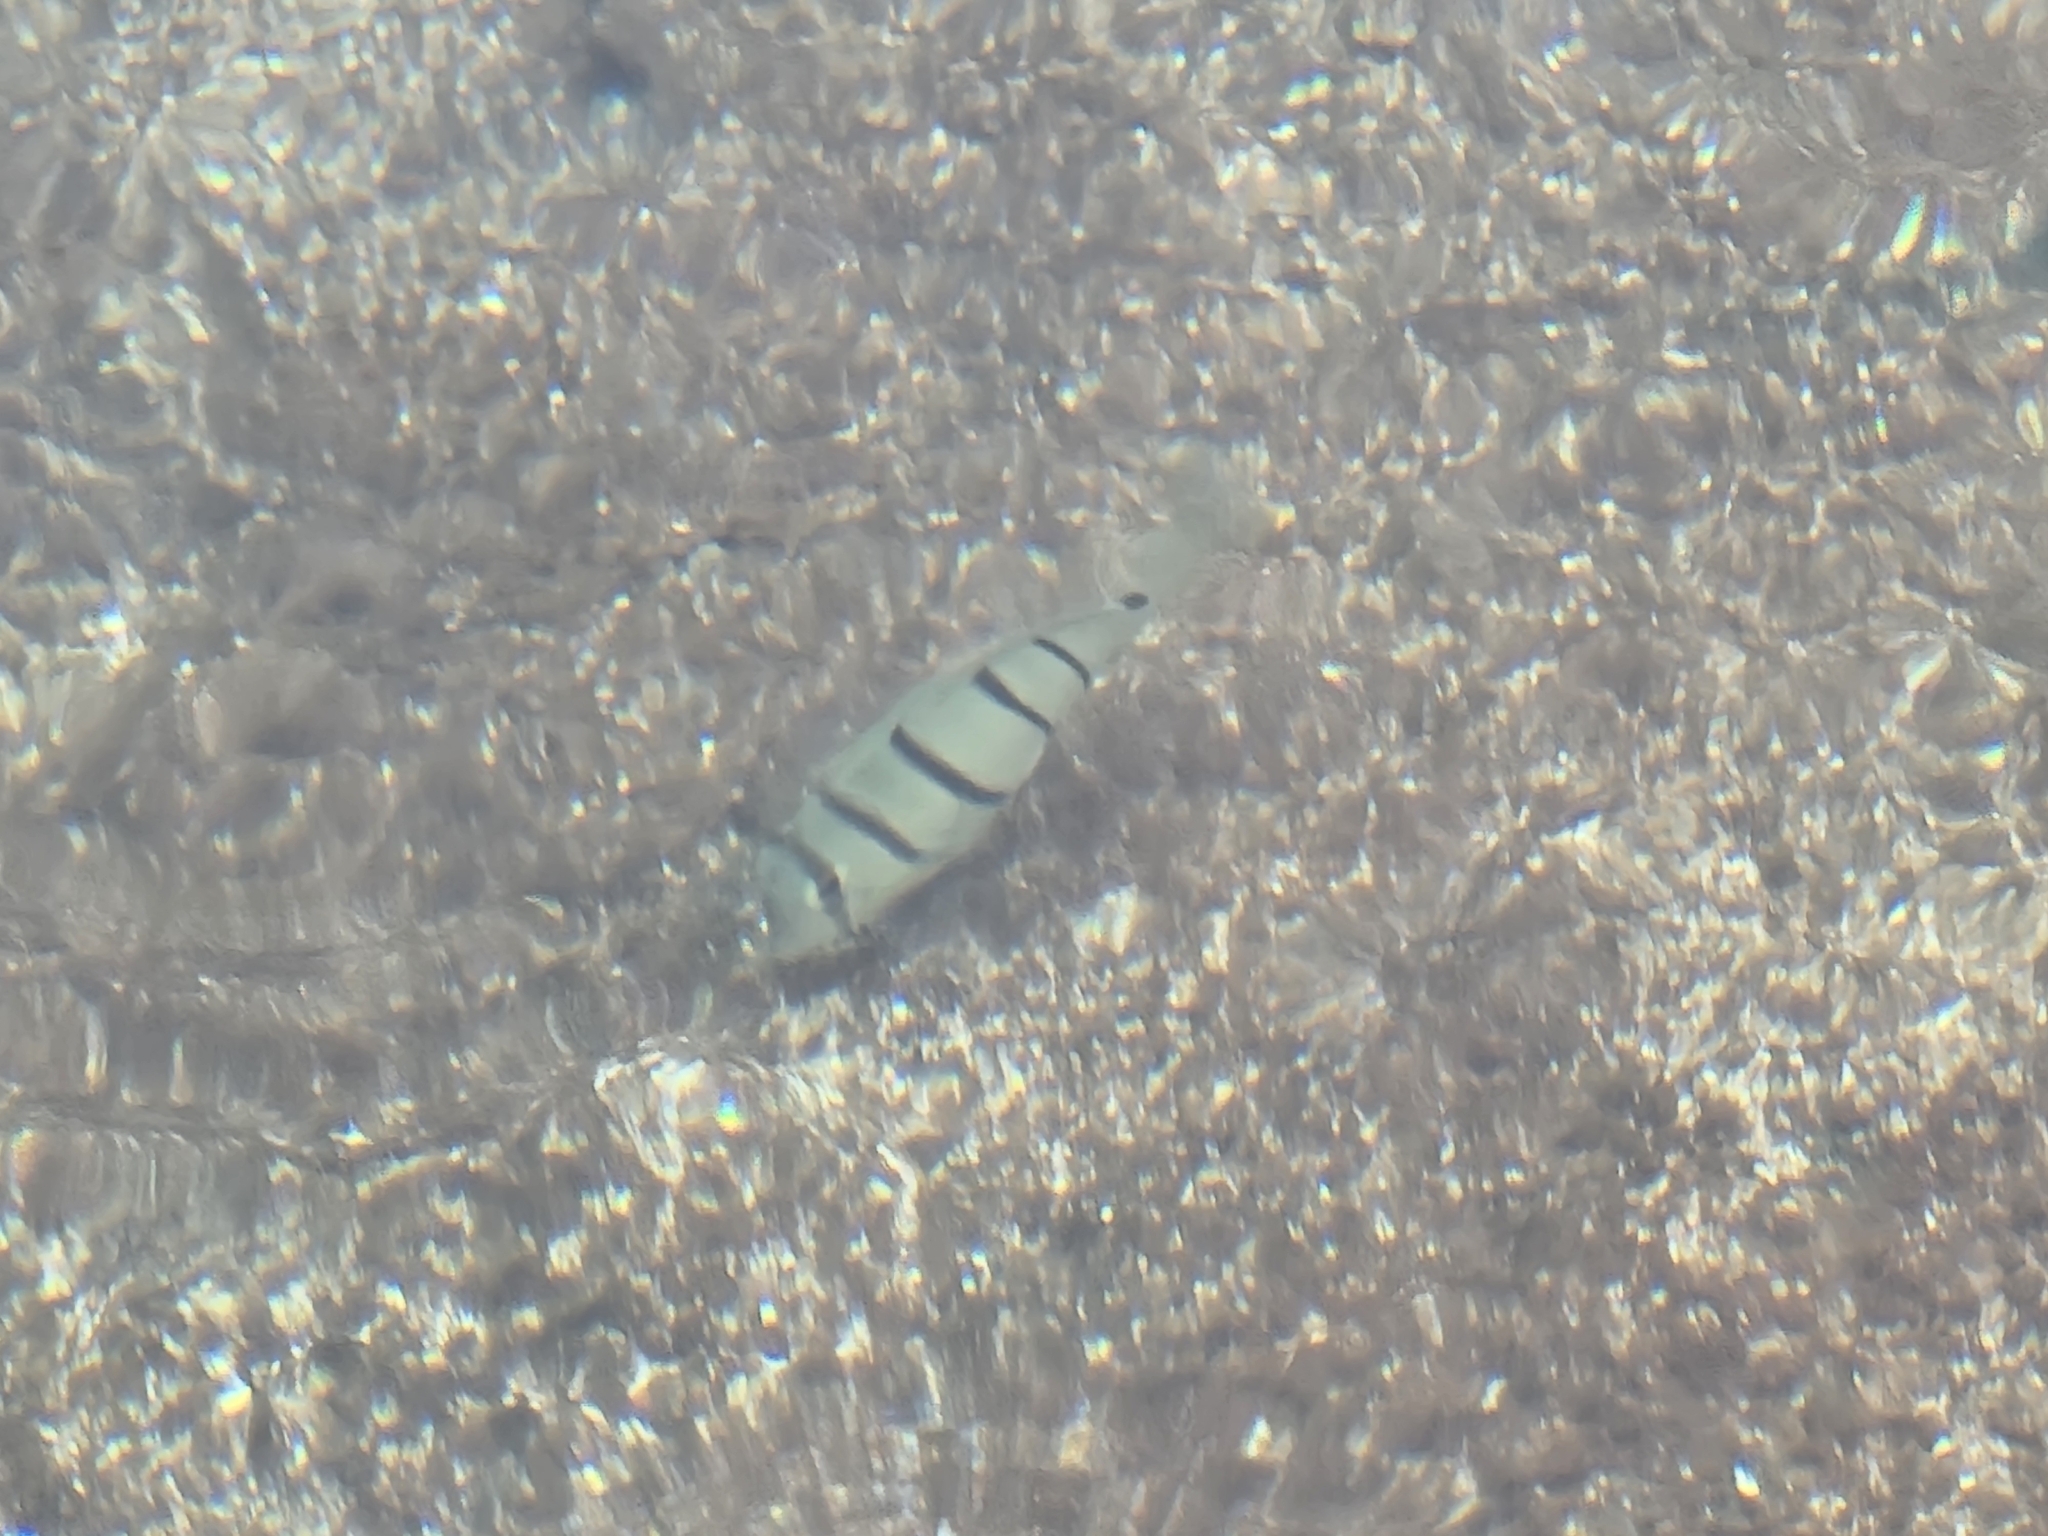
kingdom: Animalia
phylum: Chordata
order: Perciformes
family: Acanthuridae
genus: Acanthurus
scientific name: Acanthurus triostegus
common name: Convict surgeonfish
